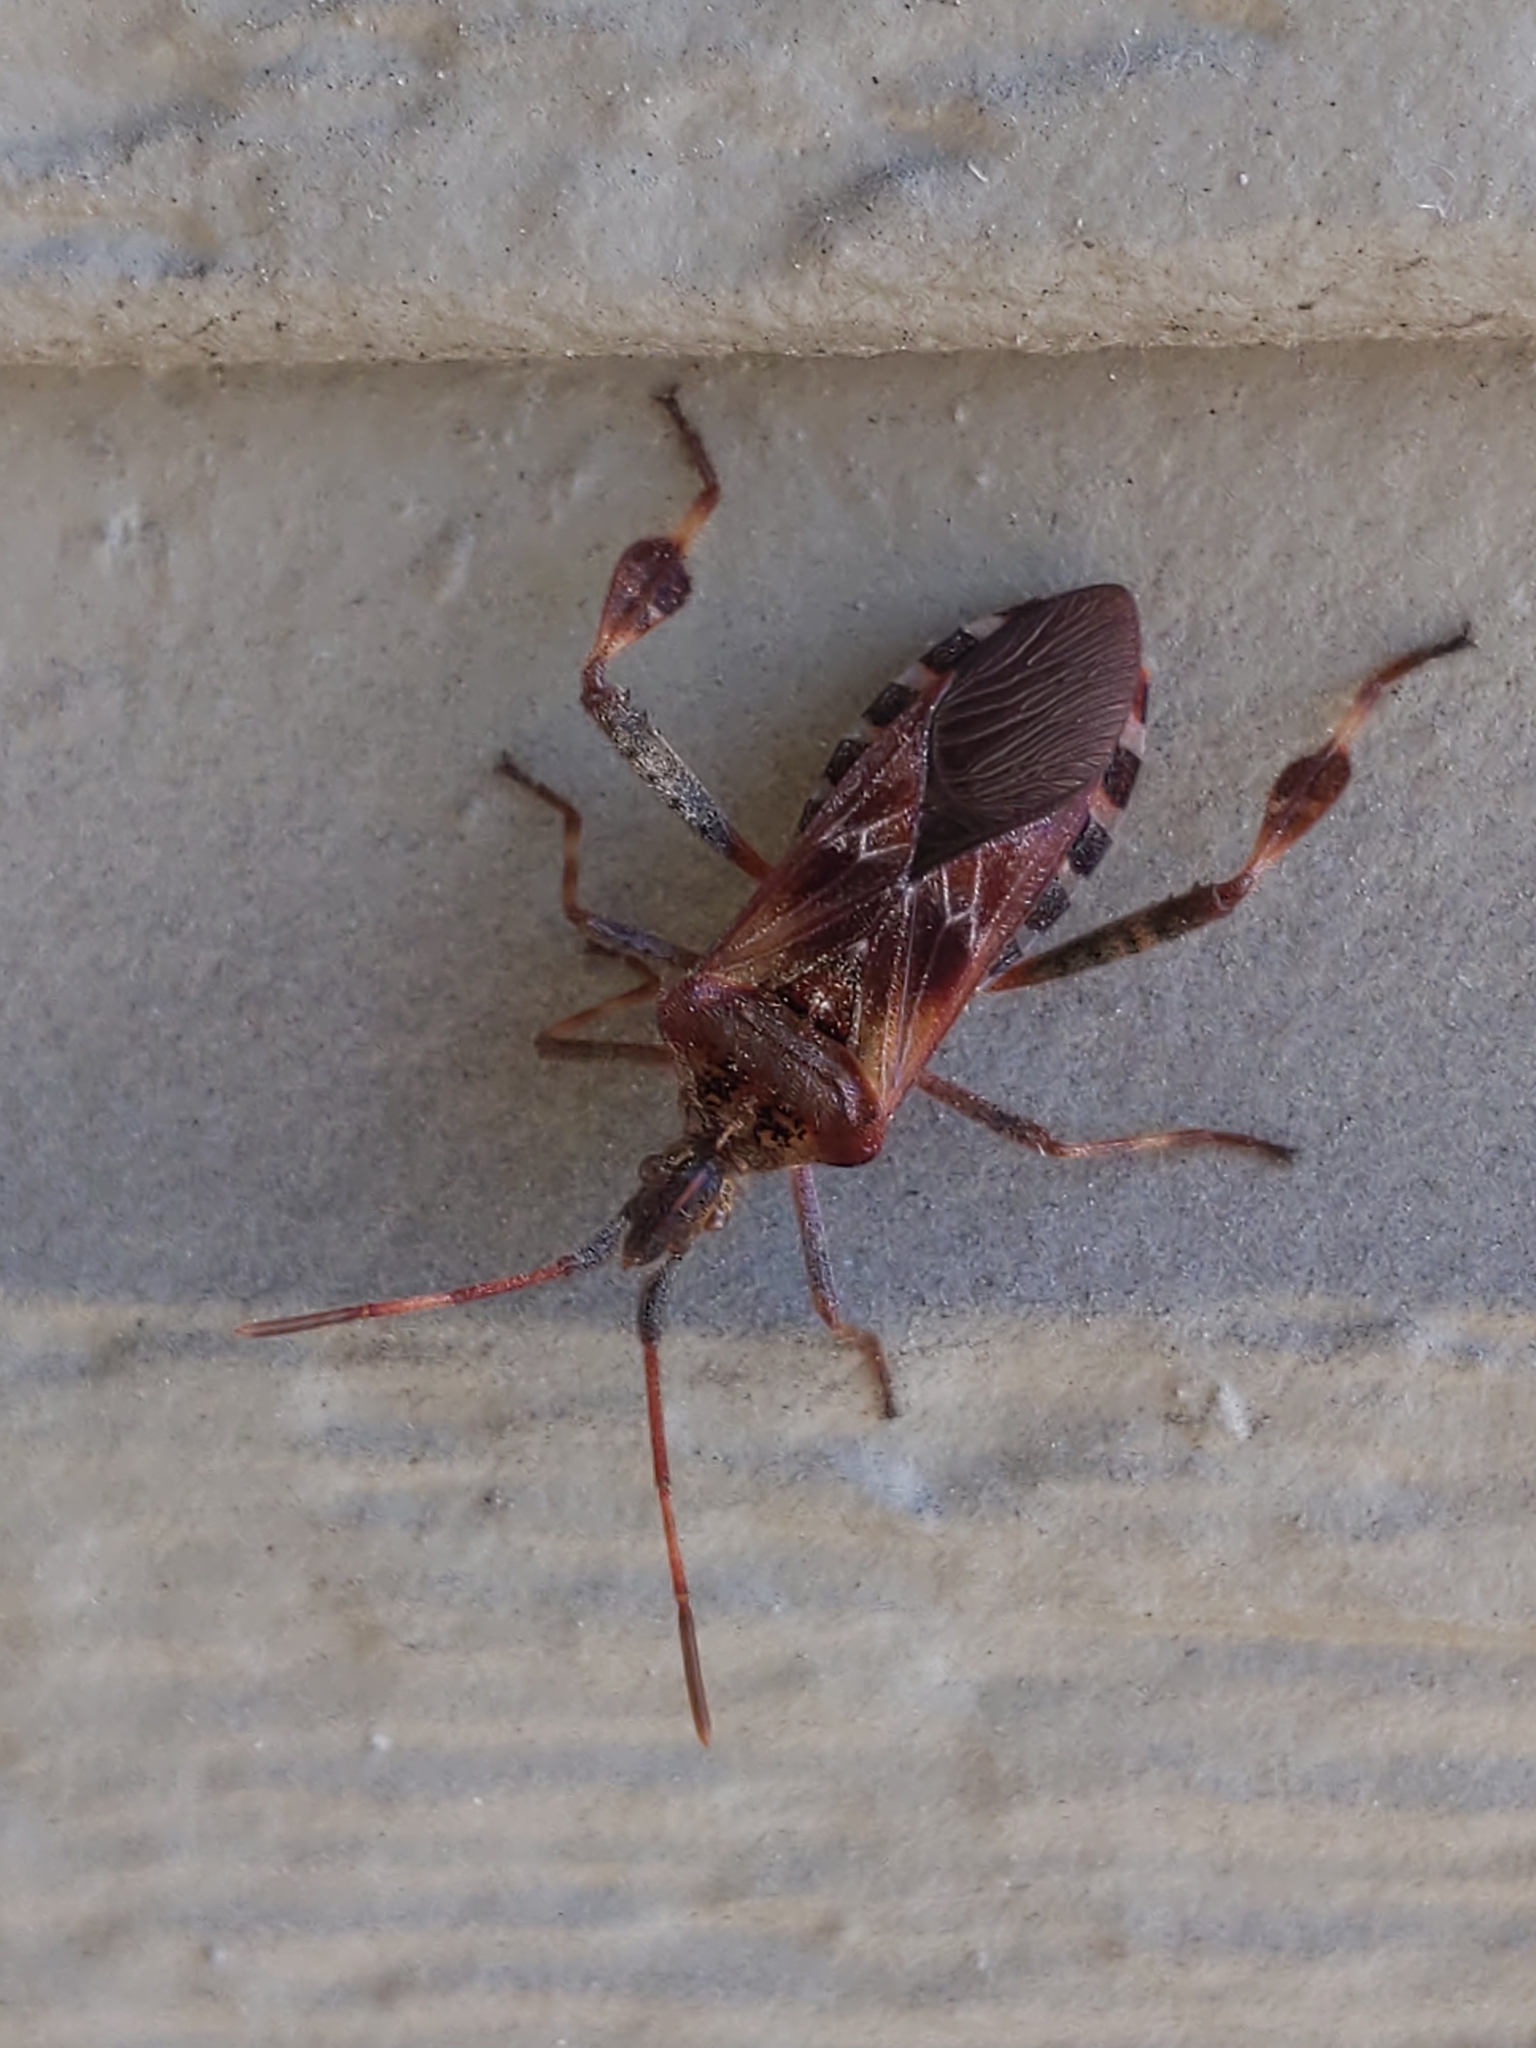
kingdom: Animalia
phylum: Arthropoda
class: Insecta
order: Hemiptera
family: Coreidae
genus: Leptoglossus
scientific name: Leptoglossus occidentalis
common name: Western conifer-seed bug
